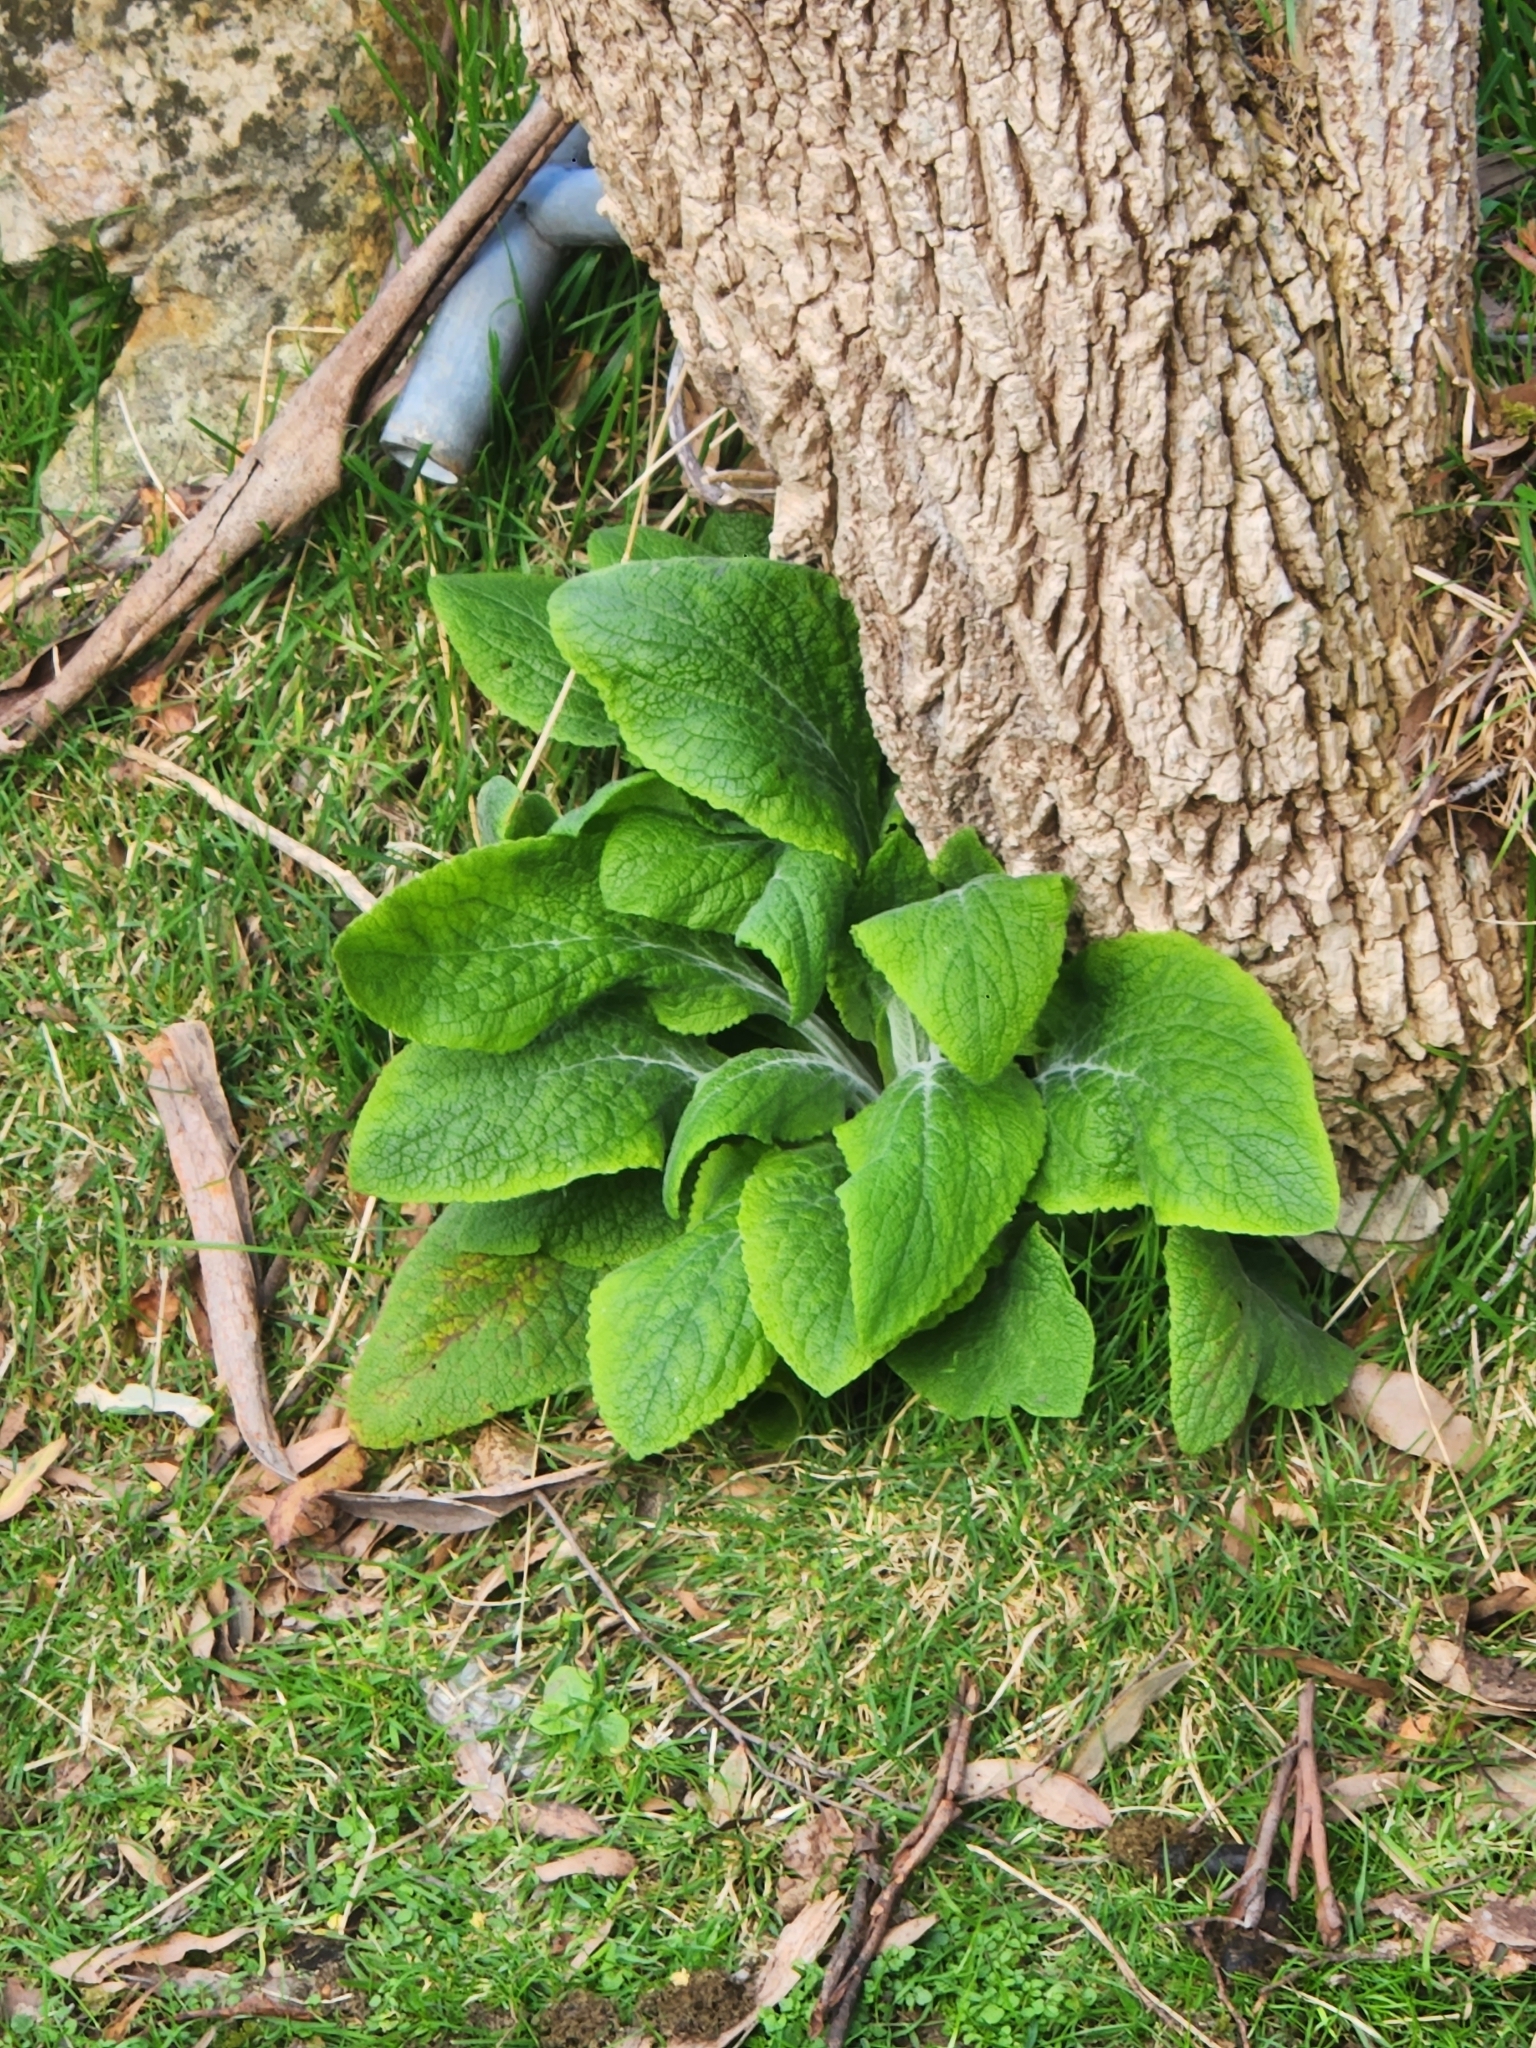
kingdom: Plantae
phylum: Tracheophyta
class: Magnoliopsida
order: Lamiales
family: Plantaginaceae
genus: Digitalis
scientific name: Digitalis purpurea
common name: Foxglove
